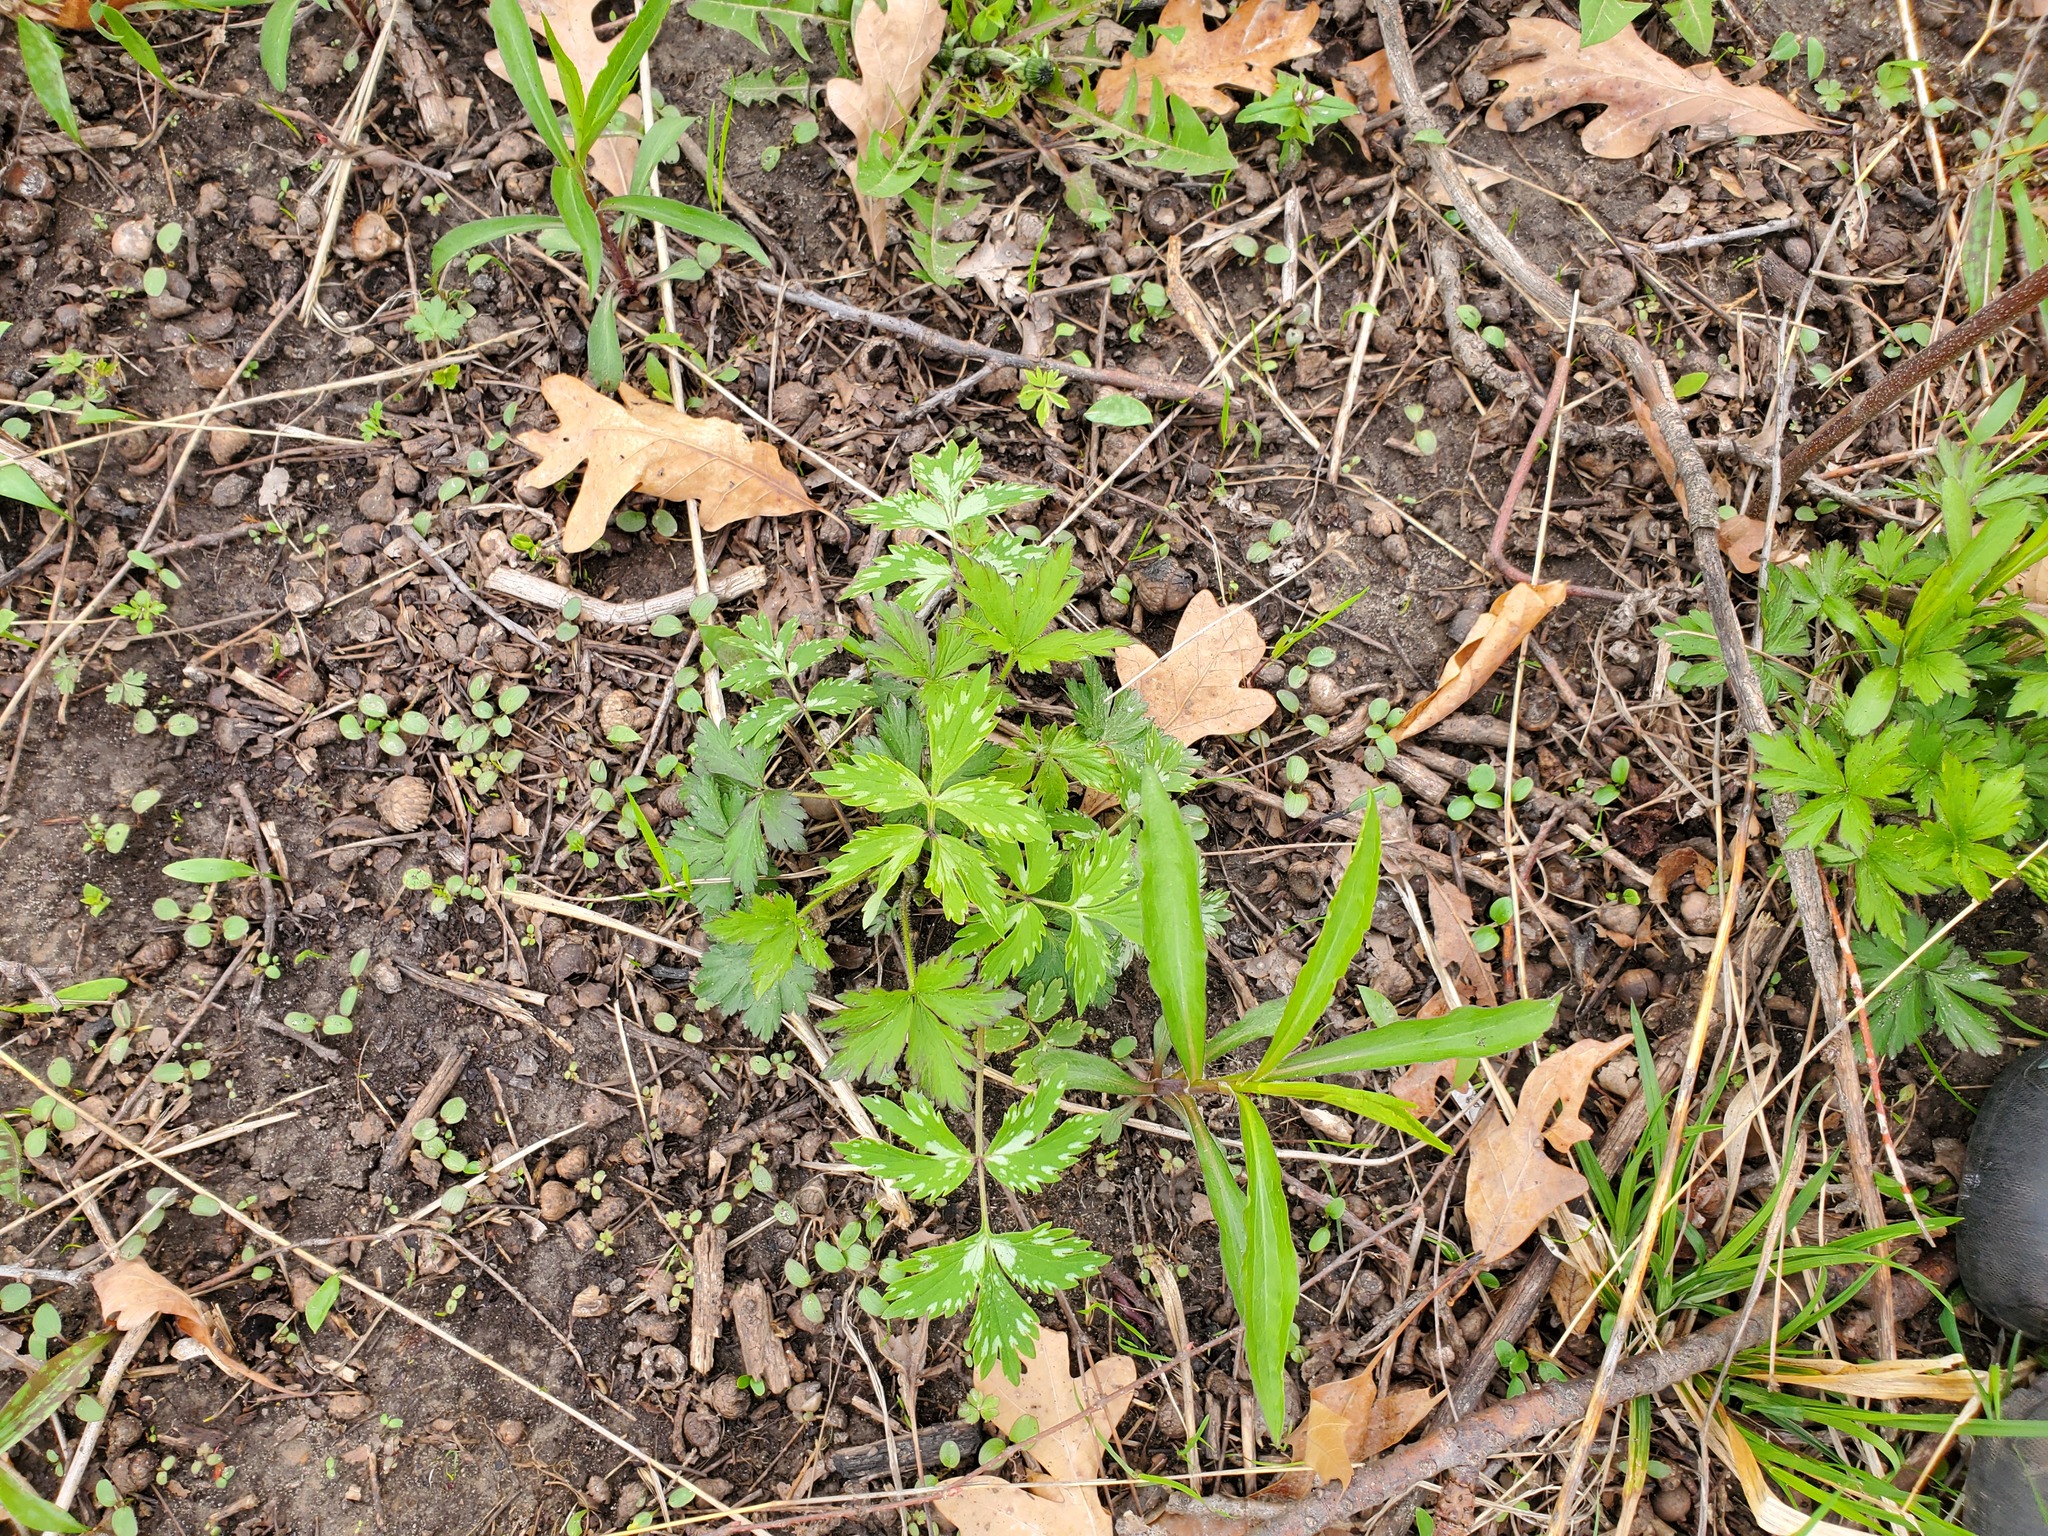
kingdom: Plantae
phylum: Tracheophyta
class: Magnoliopsida
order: Boraginales
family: Hydrophyllaceae
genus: Hydrophyllum
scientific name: Hydrophyllum virginianum
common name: Virginia waterleaf
